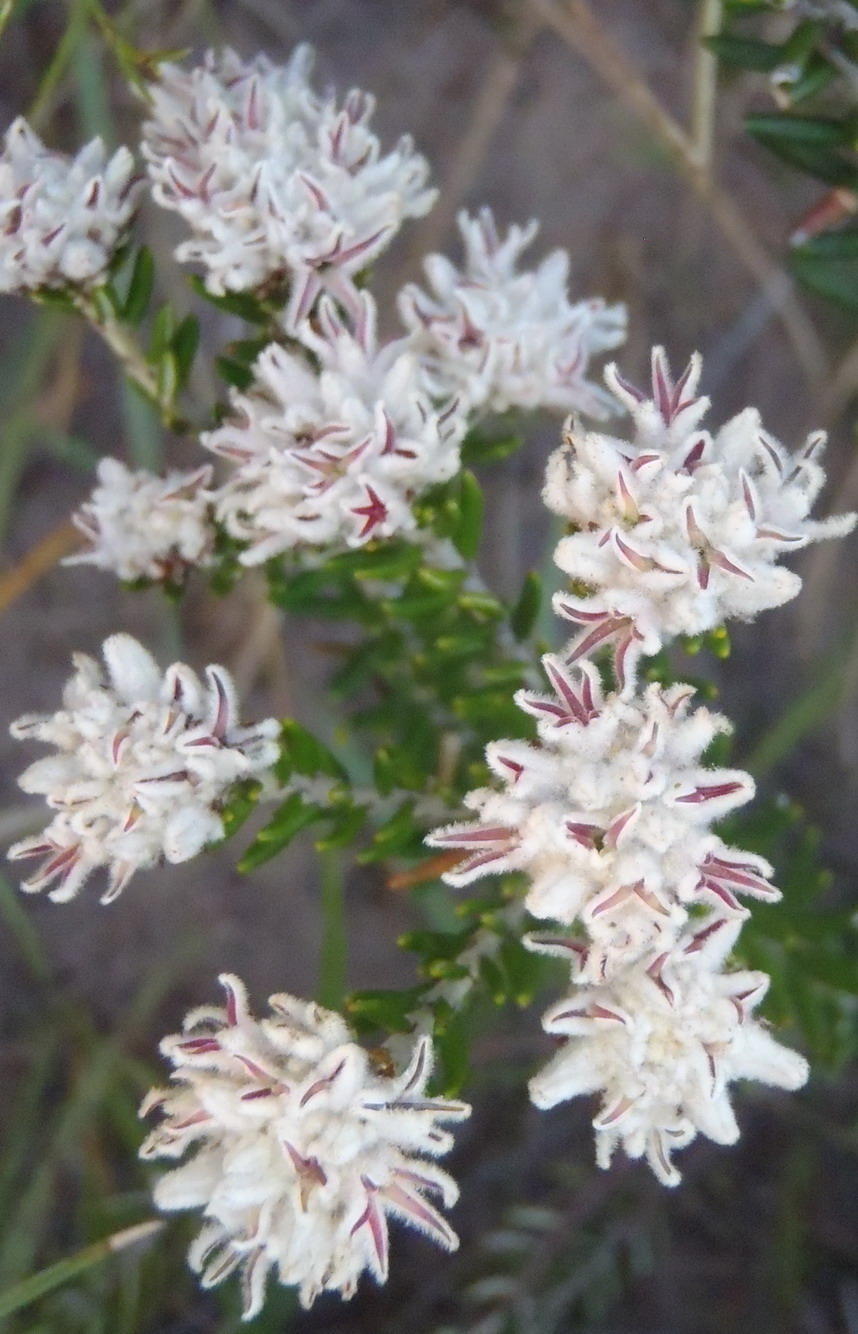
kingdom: Plantae
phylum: Tracheophyta
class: Magnoliopsida
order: Rosales
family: Rhamnaceae
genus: Trichocephalus
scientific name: Trichocephalus stipularis
